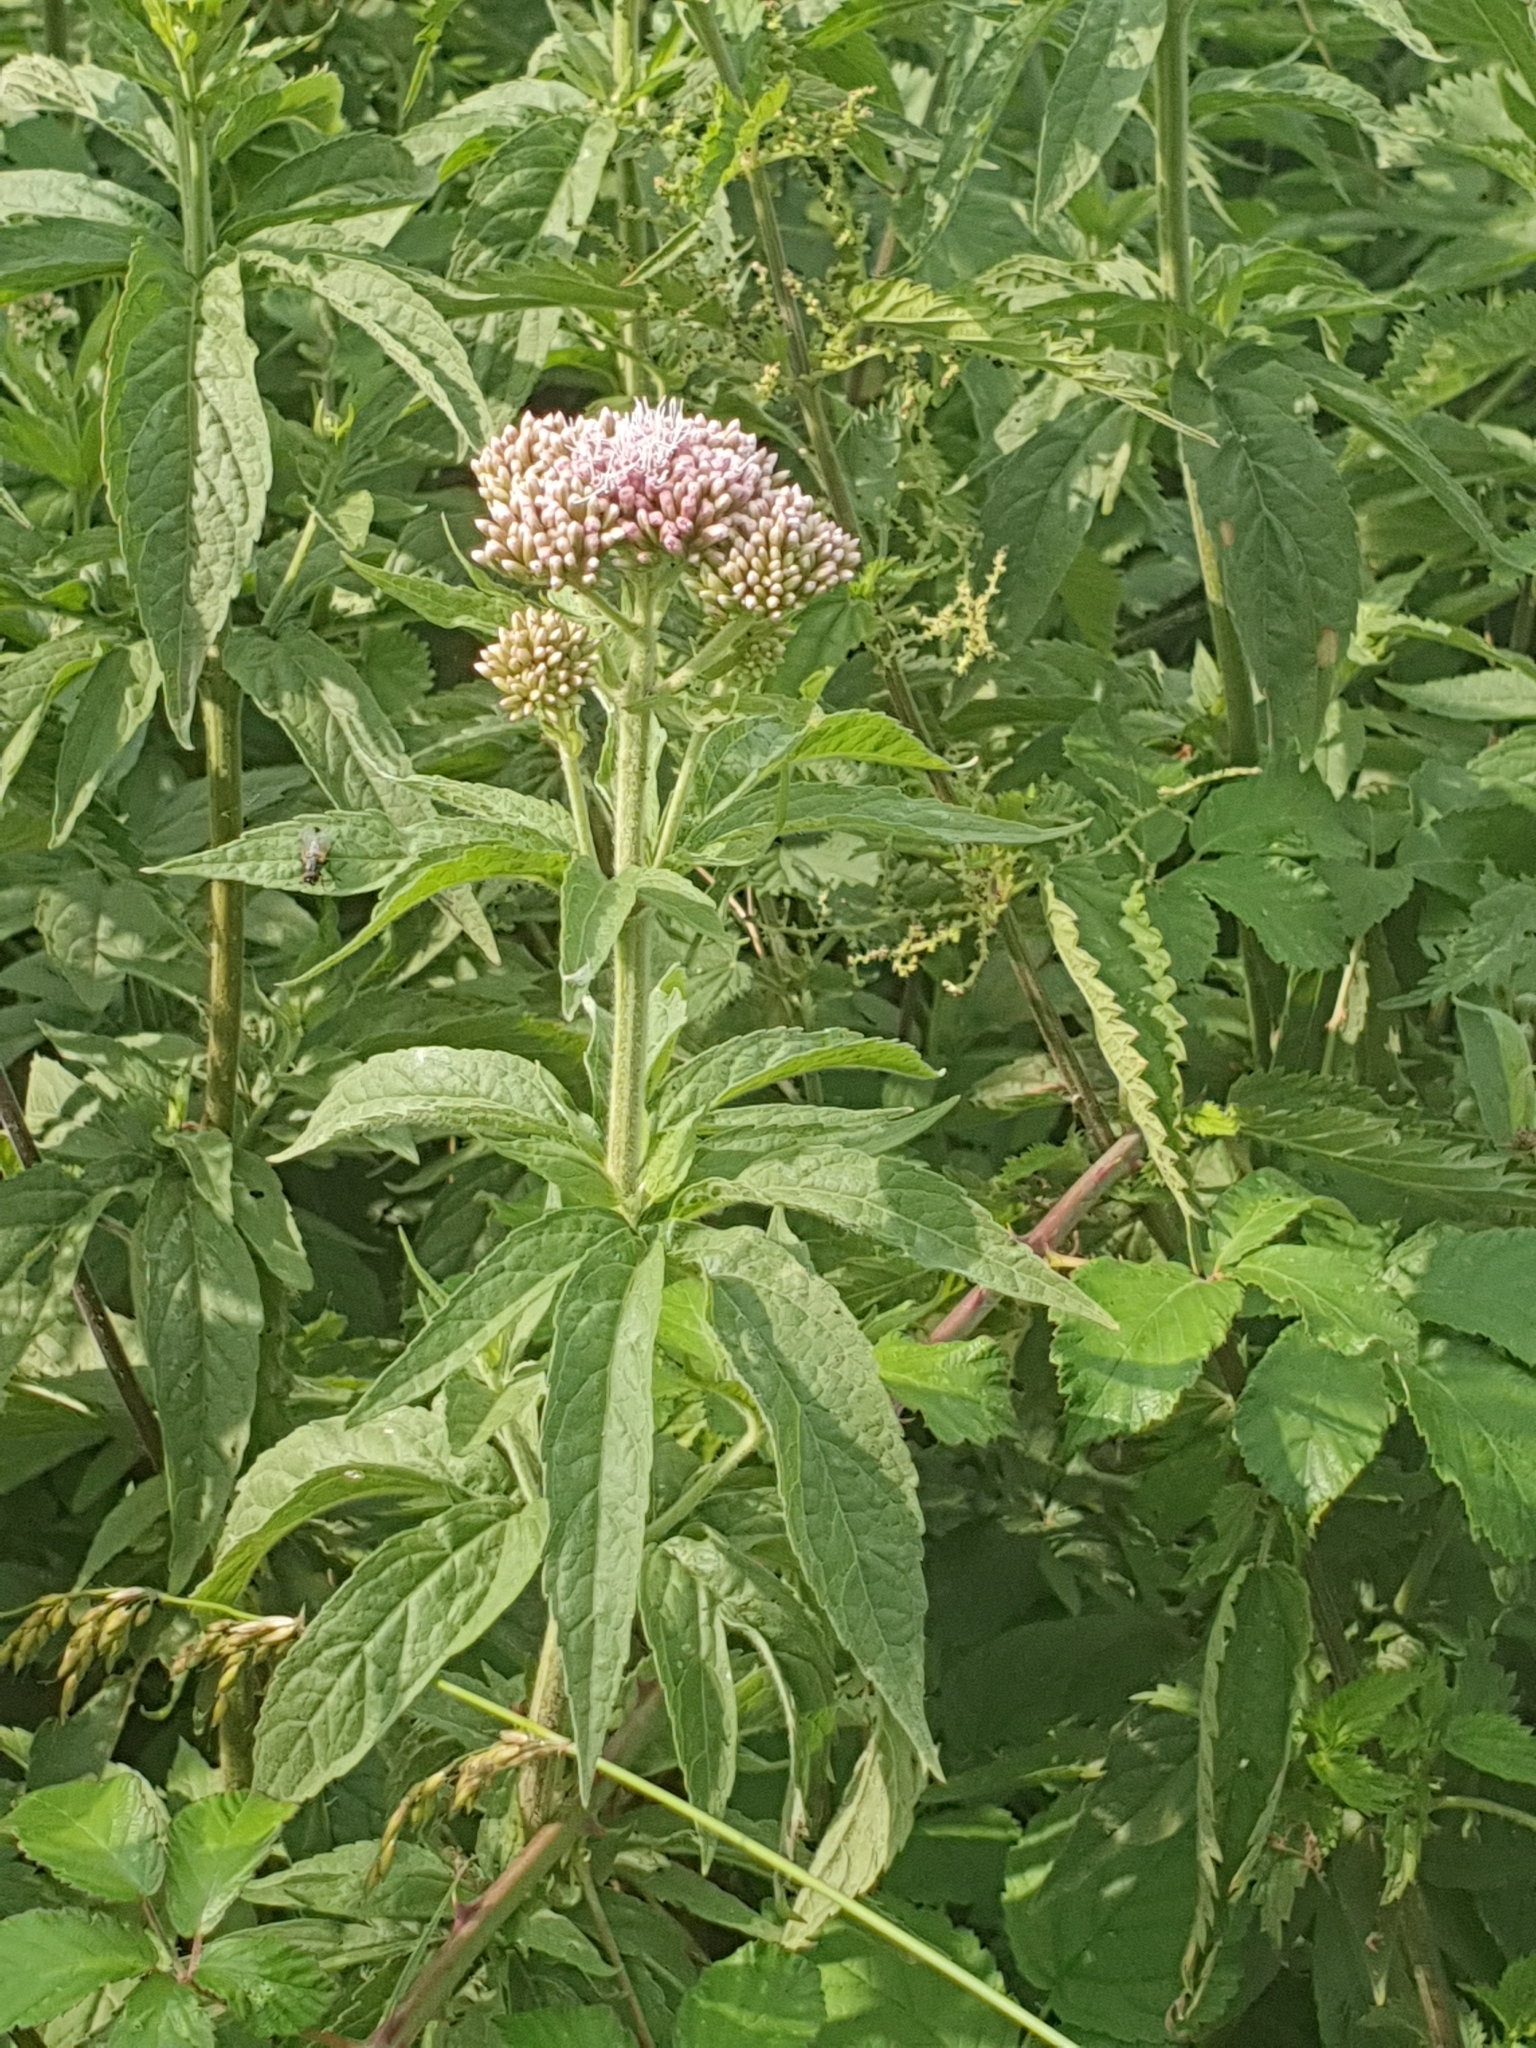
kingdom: Plantae
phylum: Tracheophyta
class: Magnoliopsida
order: Asterales
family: Asteraceae
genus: Eupatorium
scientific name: Eupatorium cannabinum
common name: Hemp-agrimony
